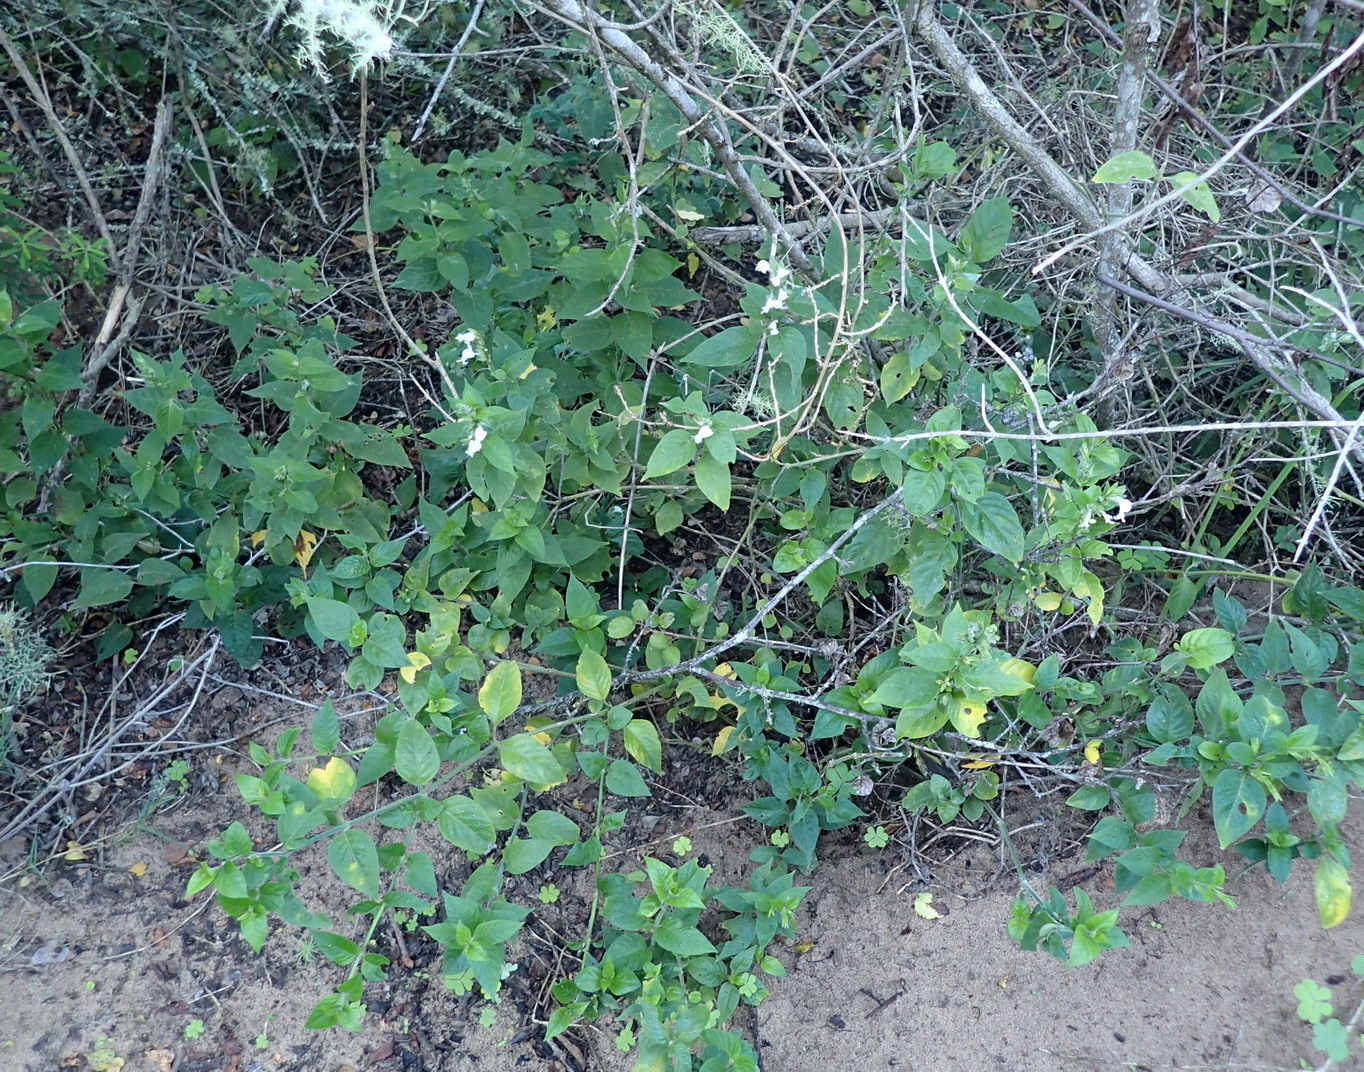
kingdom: Plantae
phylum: Tracheophyta
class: Magnoliopsida
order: Lamiales
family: Acanthaceae
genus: Hypoestes
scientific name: Hypoestes forskaolii
